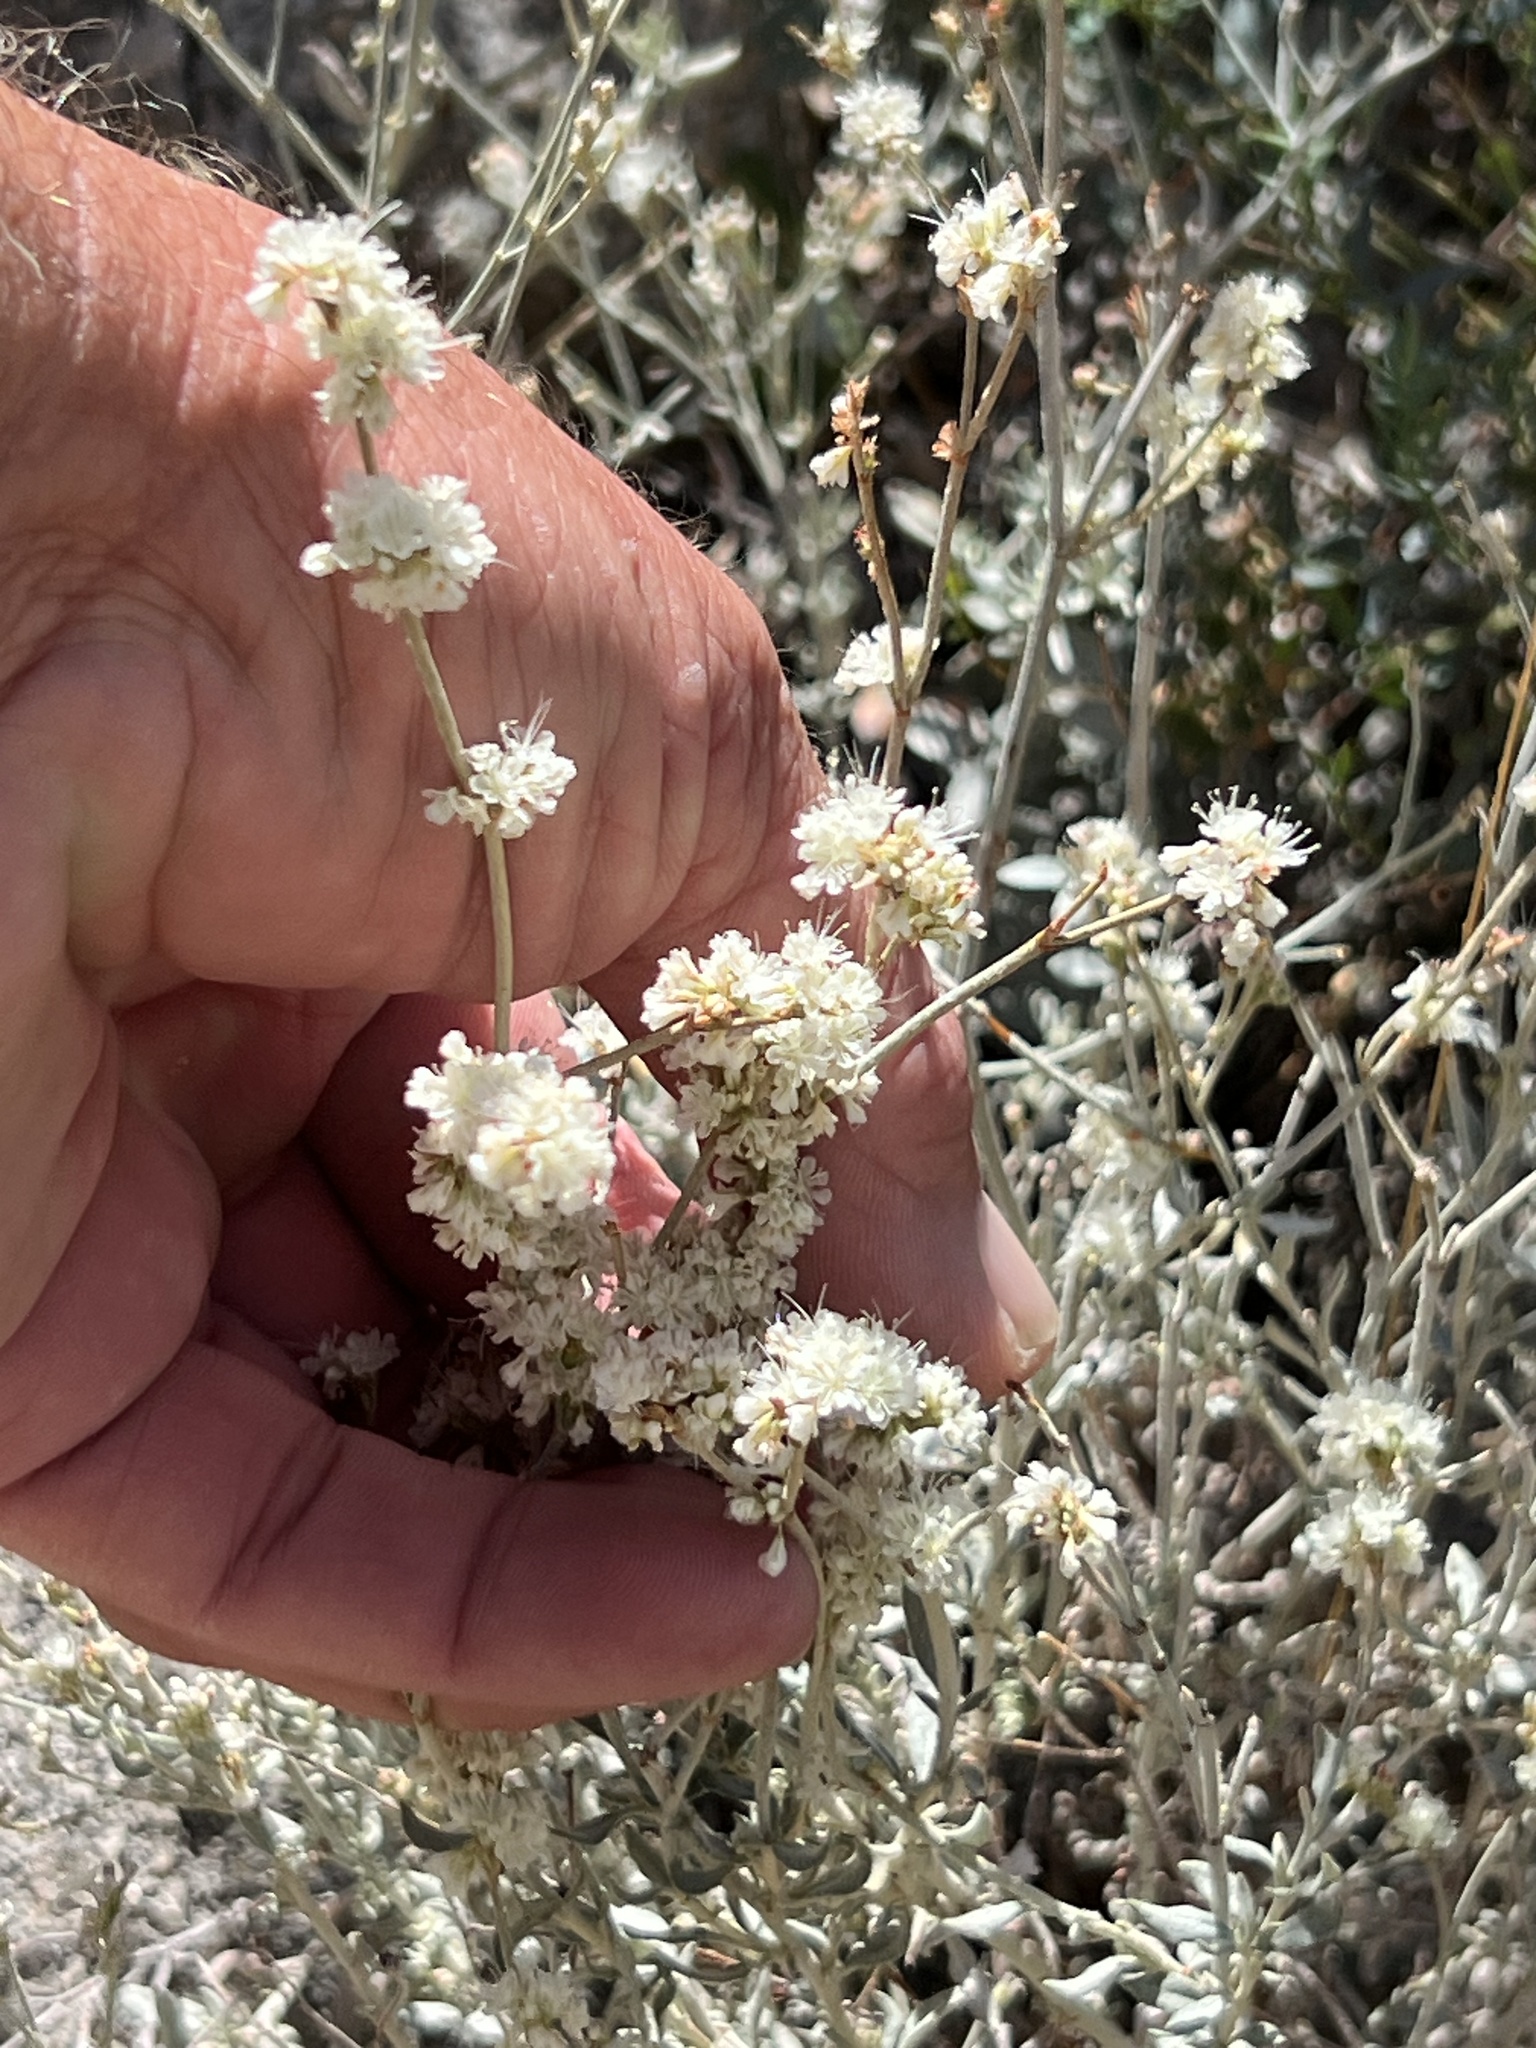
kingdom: Plantae
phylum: Tracheophyta
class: Magnoliopsida
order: Caryophyllales
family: Polygonaceae
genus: Eriogonum
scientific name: Eriogonum wrightii
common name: Bastard-sage
